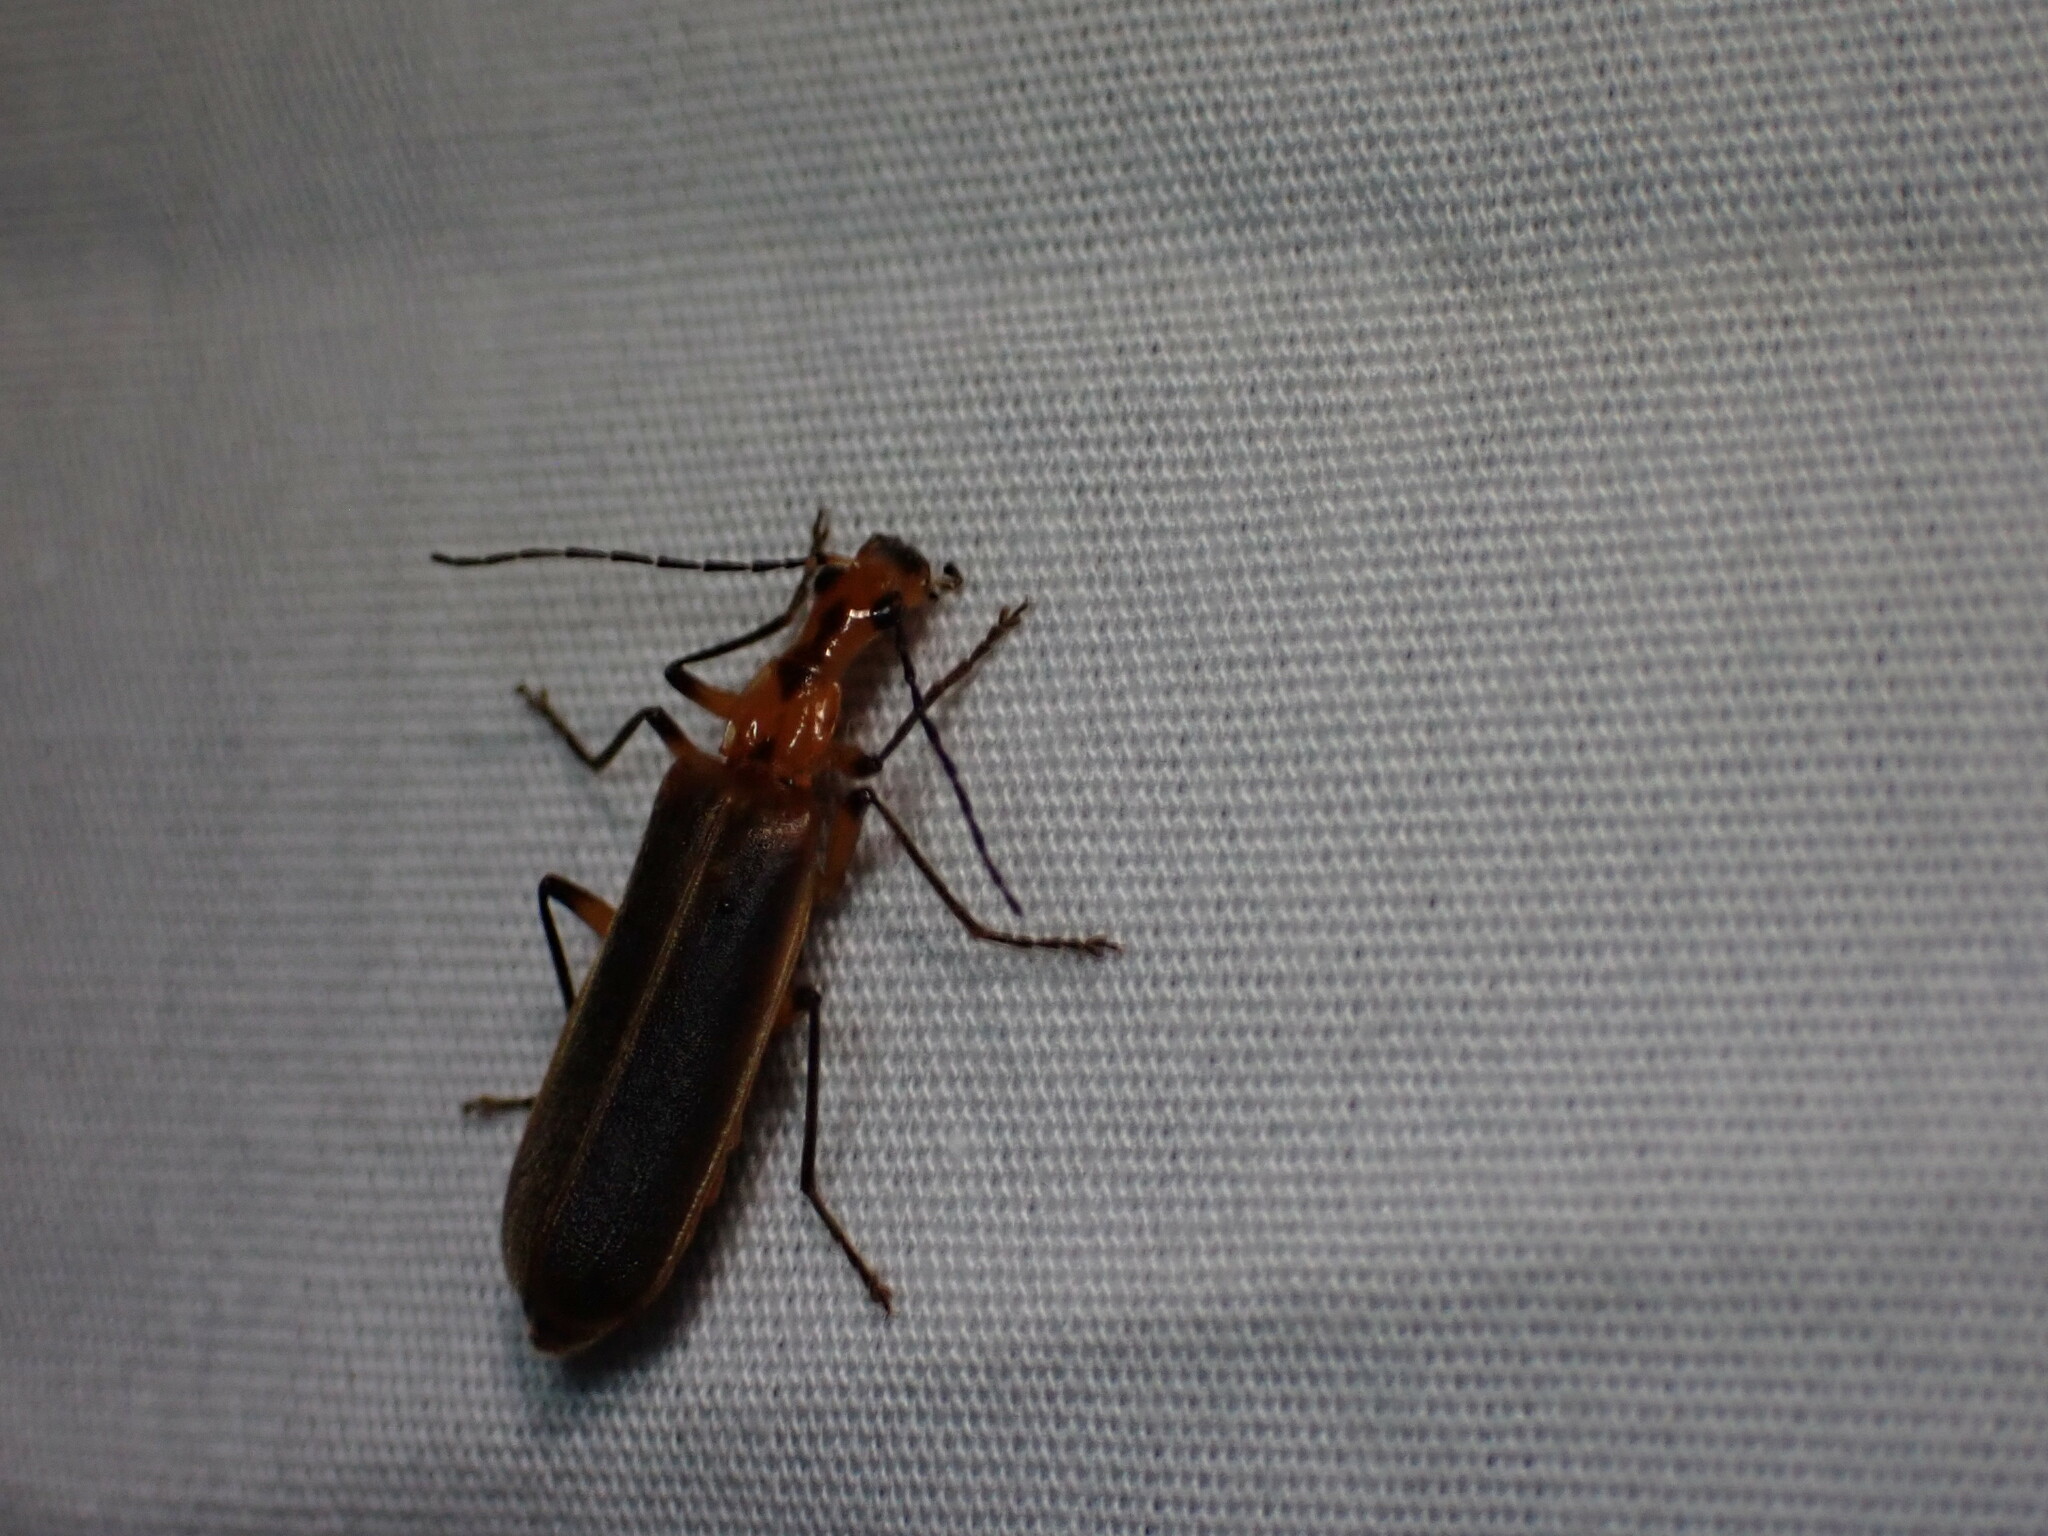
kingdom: Animalia
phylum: Arthropoda
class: Insecta
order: Coleoptera
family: Cantharidae
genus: Podabrus
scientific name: Podabrus protensus
